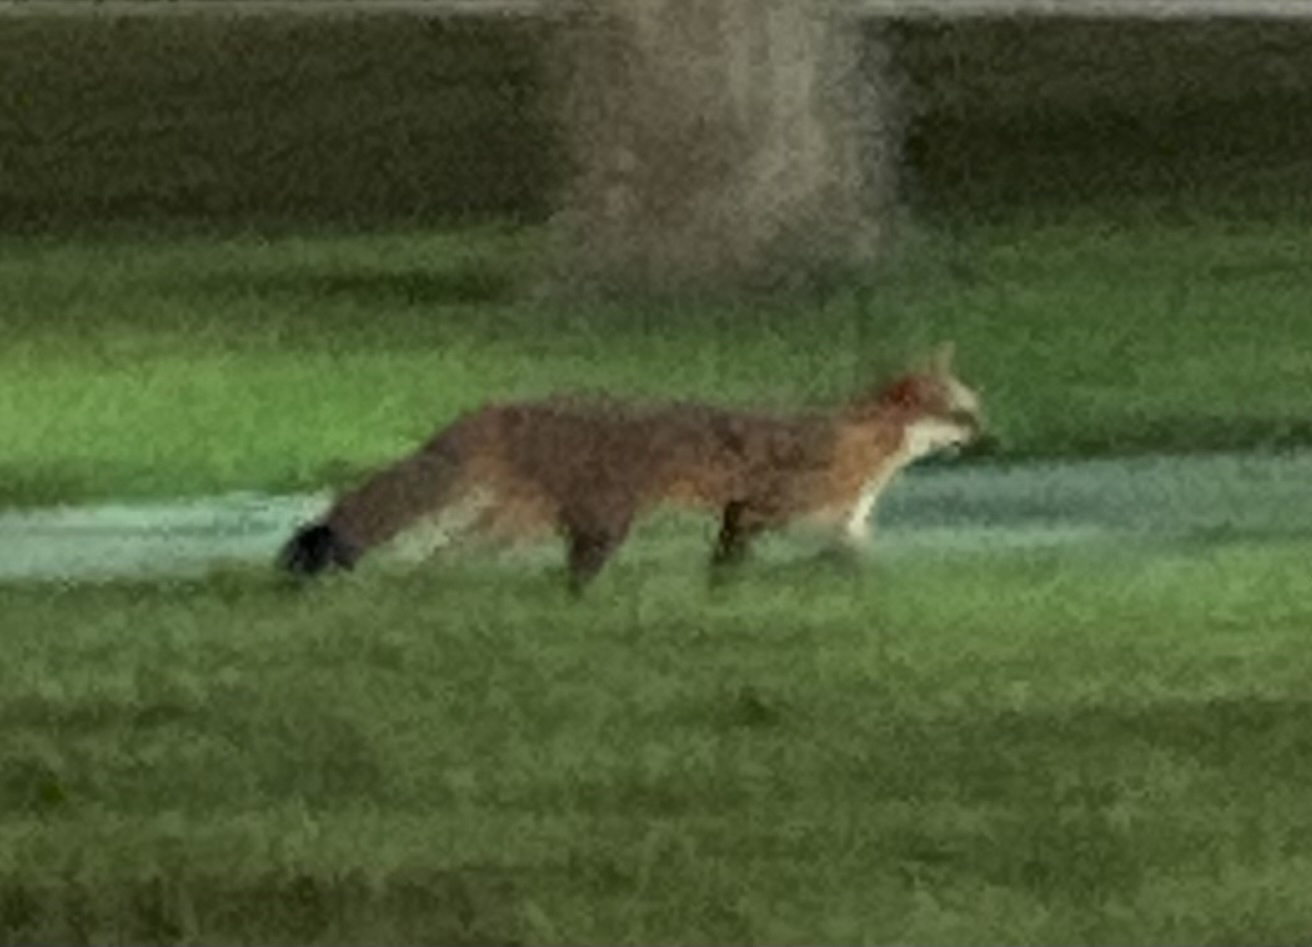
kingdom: Animalia
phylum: Chordata
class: Mammalia
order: Carnivora
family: Canidae
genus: Urocyon
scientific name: Urocyon cinereoargenteus
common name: Gray fox
